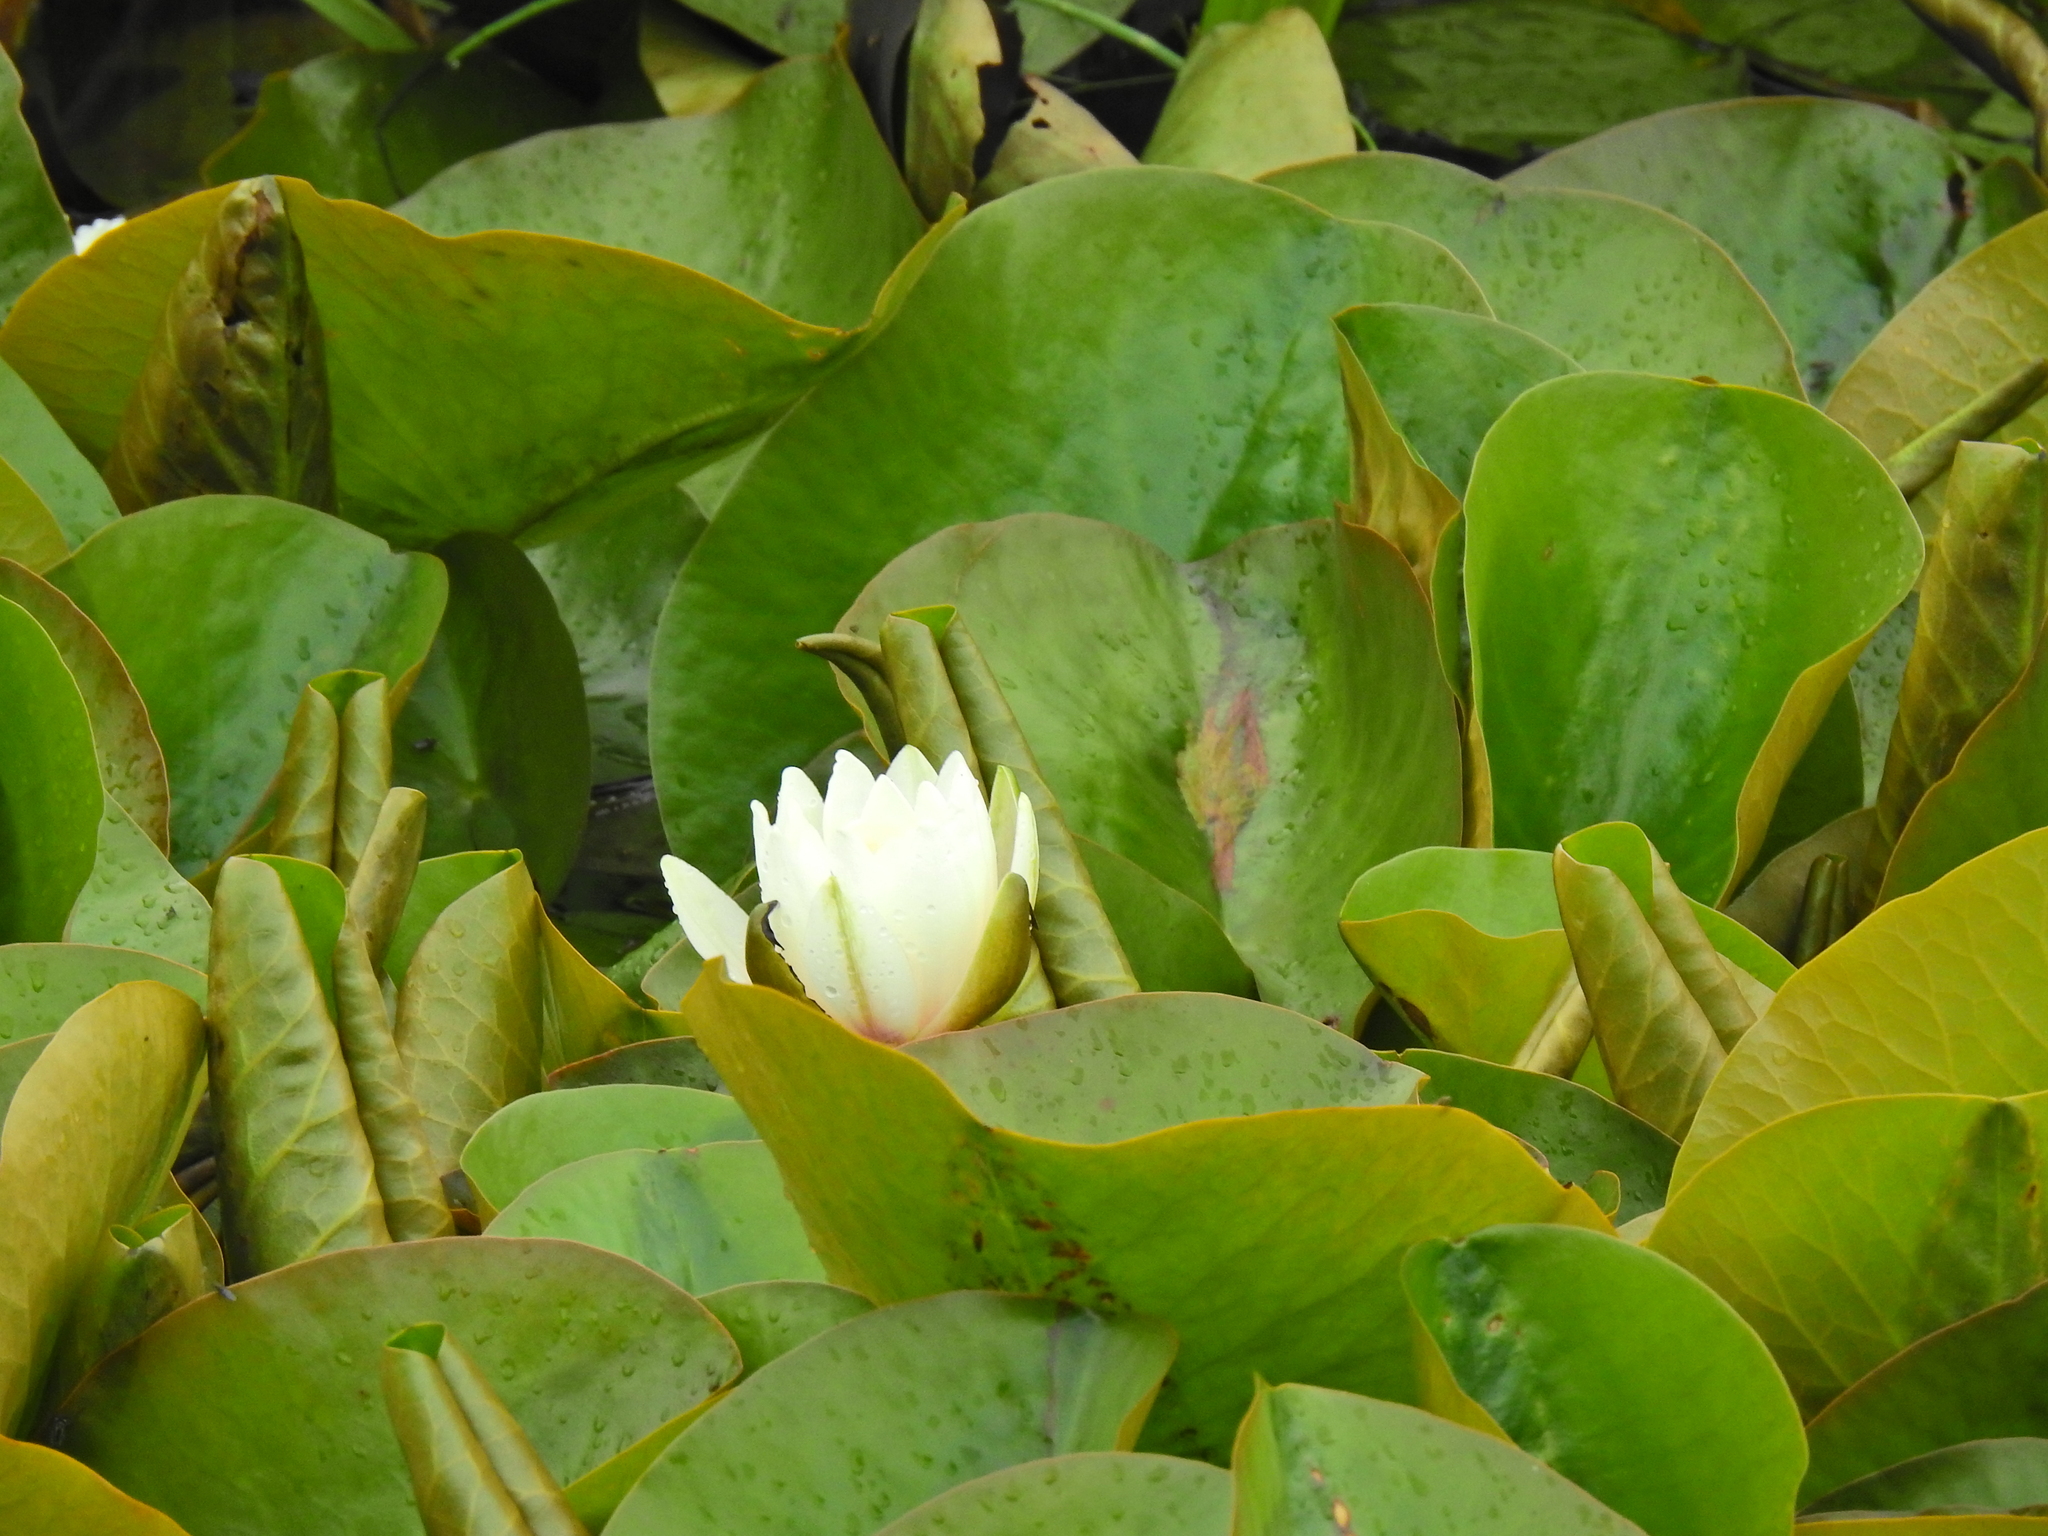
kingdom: Plantae
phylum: Tracheophyta
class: Magnoliopsida
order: Nymphaeales
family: Nymphaeaceae
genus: Nymphaea
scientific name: Nymphaea alba
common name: White water-lily
